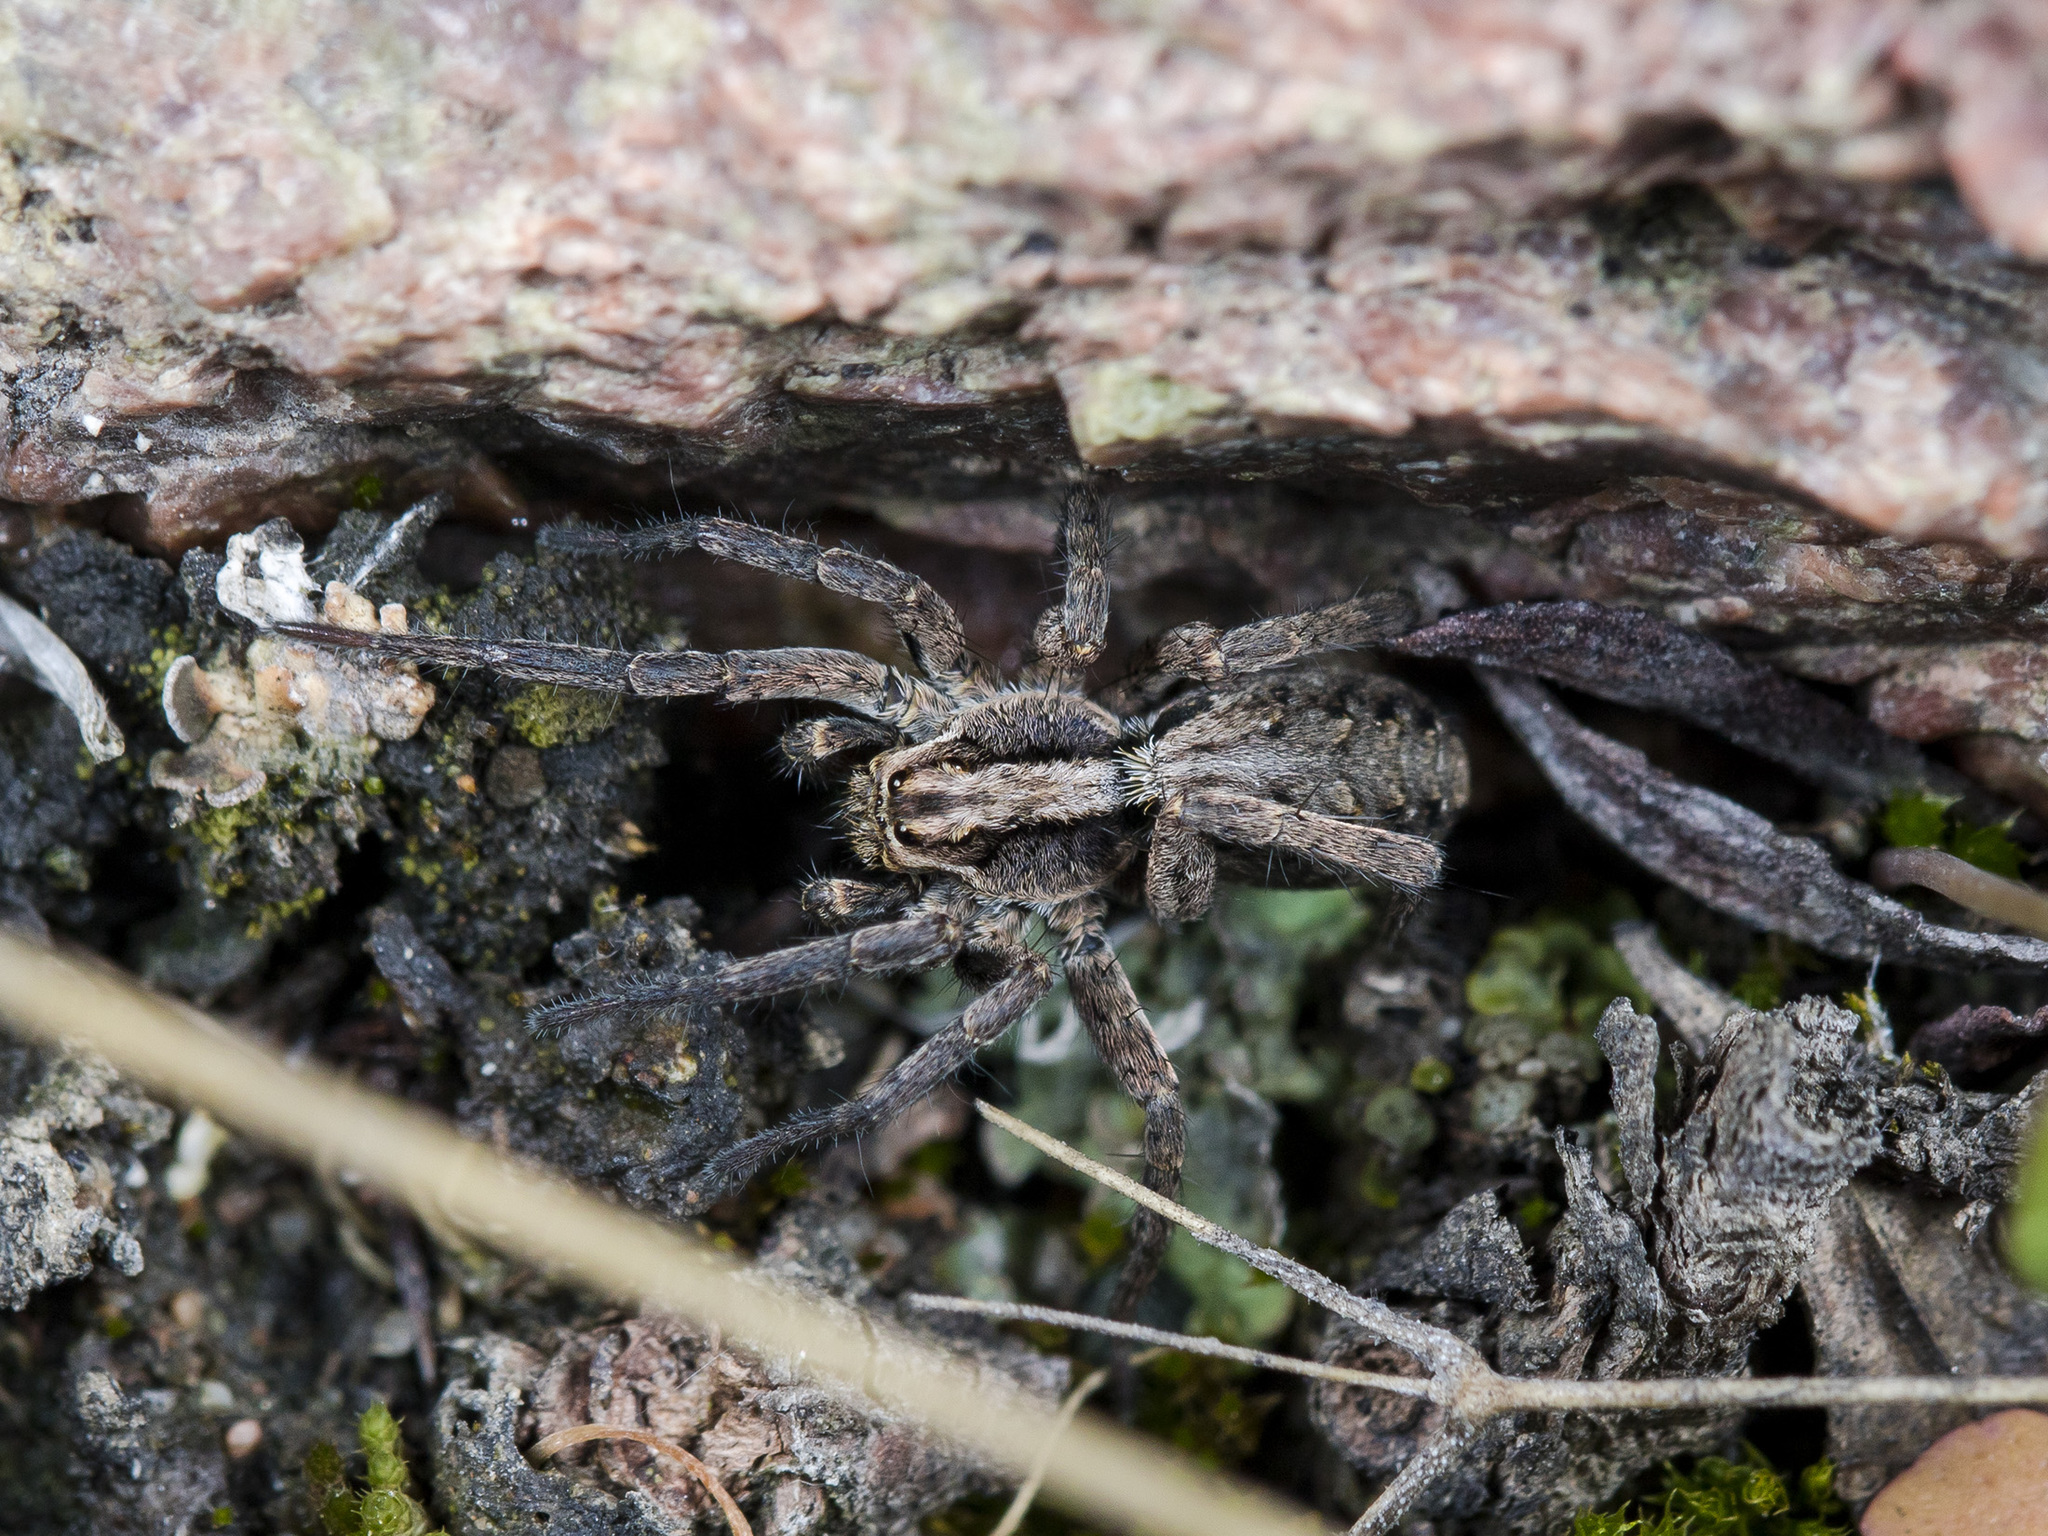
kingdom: Animalia
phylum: Arthropoda
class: Arachnida
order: Araneae
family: Lycosidae
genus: Alopecosa
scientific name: Alopecosa cursor
